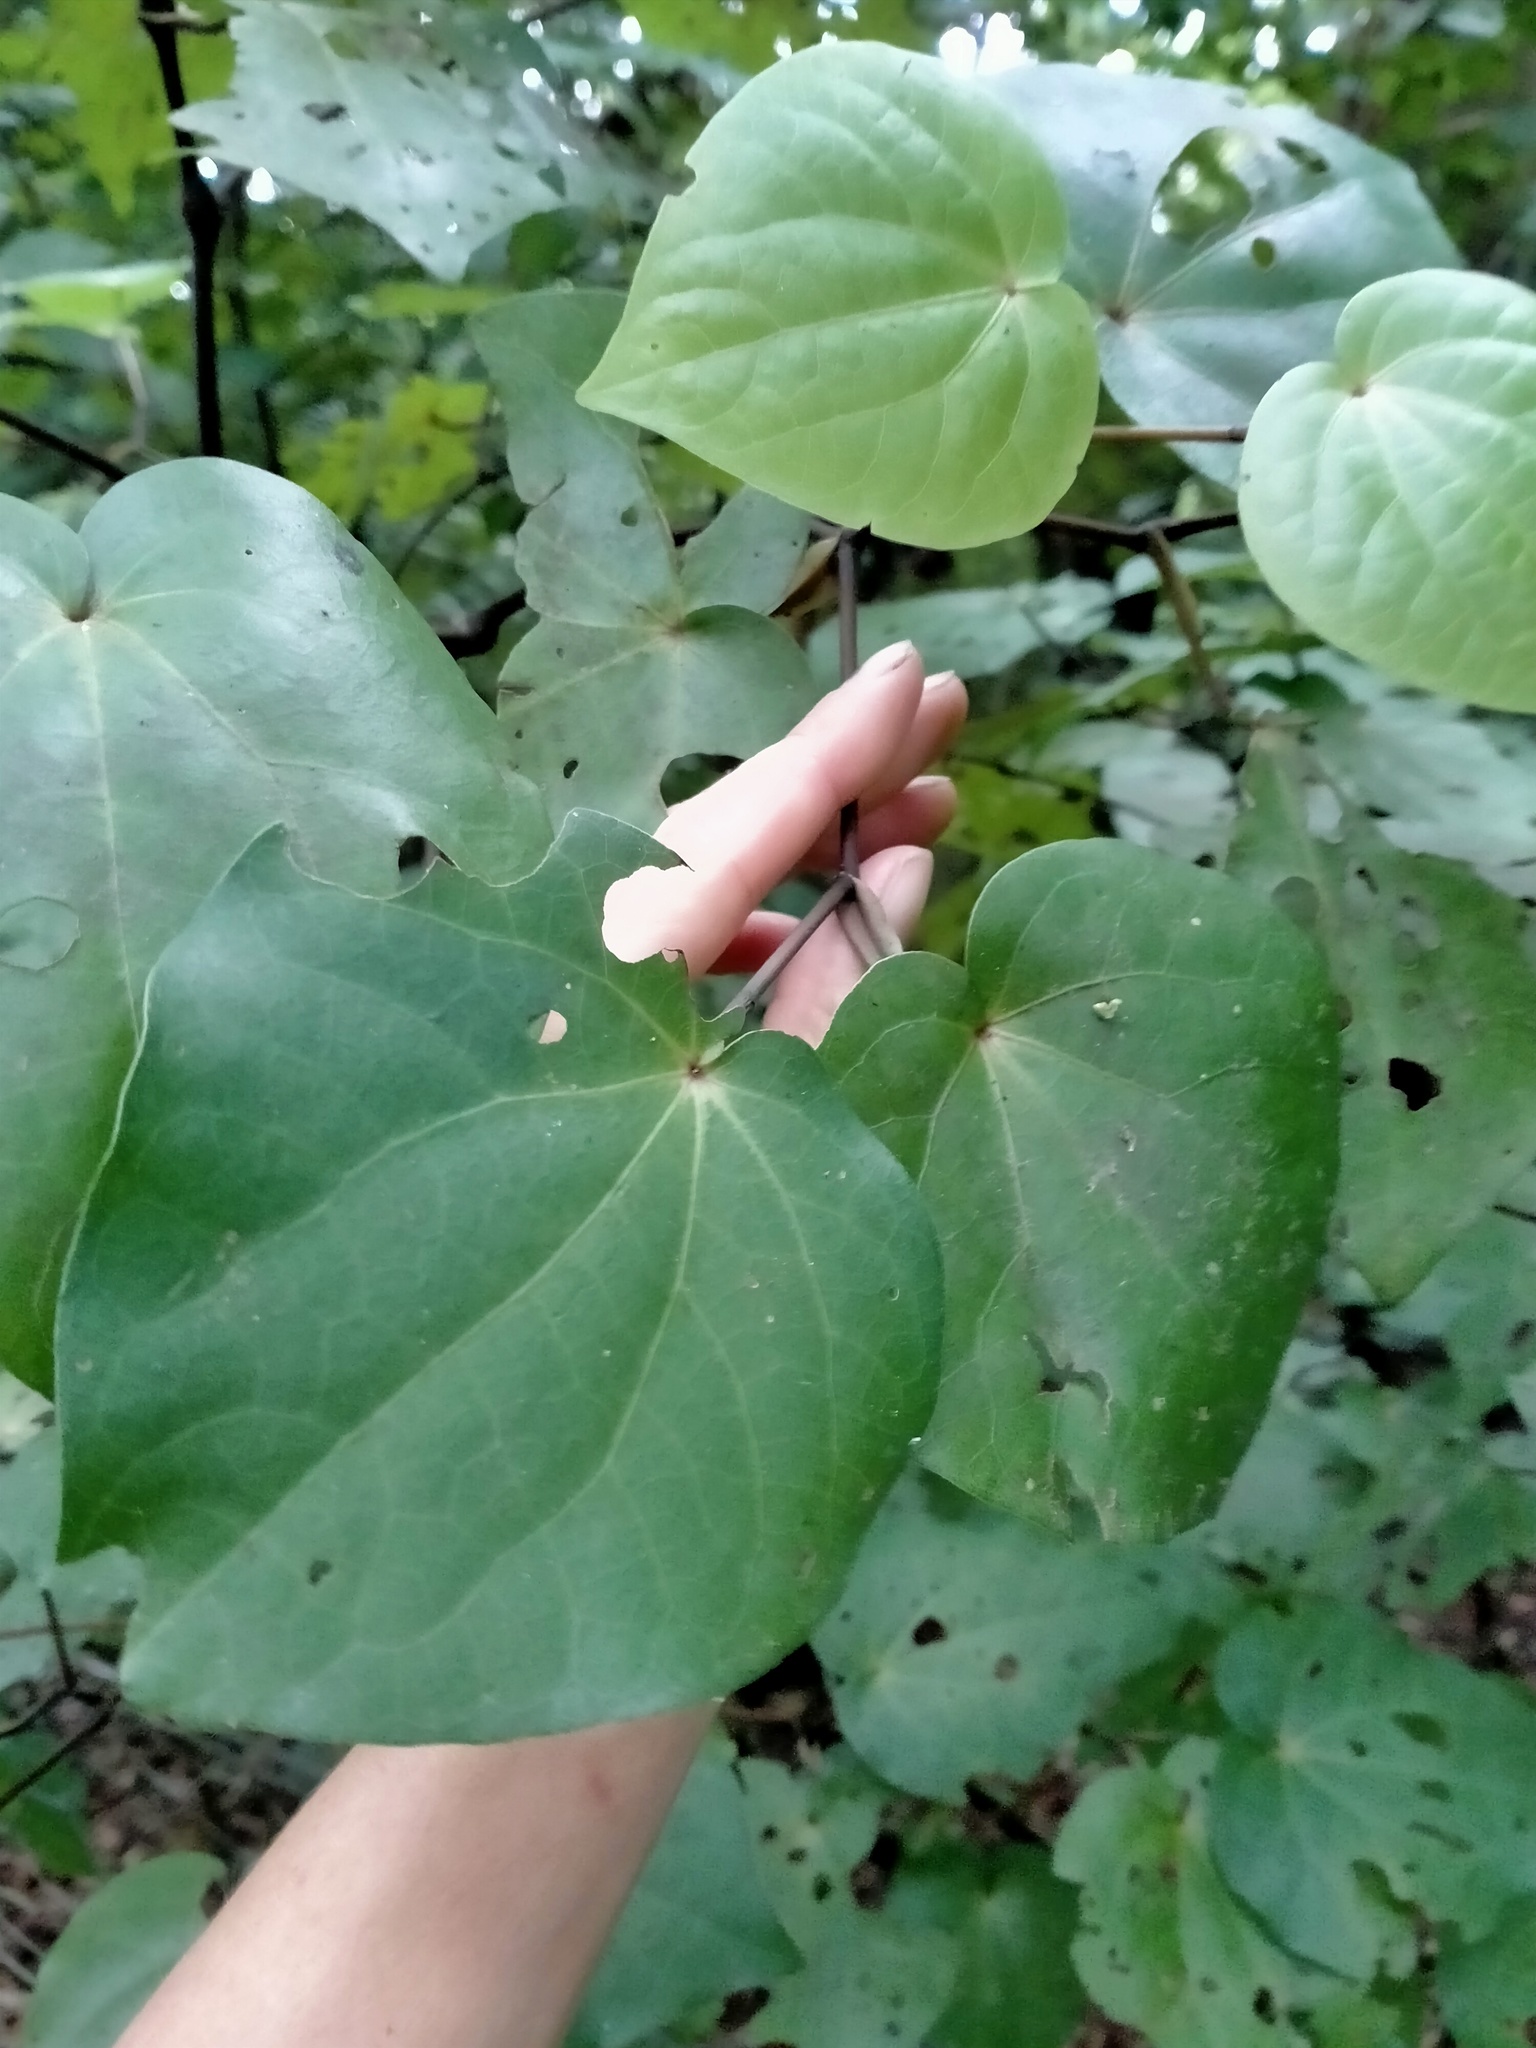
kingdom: Plantae
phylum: Tracheophyta
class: Magnoliopsida
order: Piperales
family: Piperaceae
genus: Macropiper
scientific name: Macropiper excelsum
